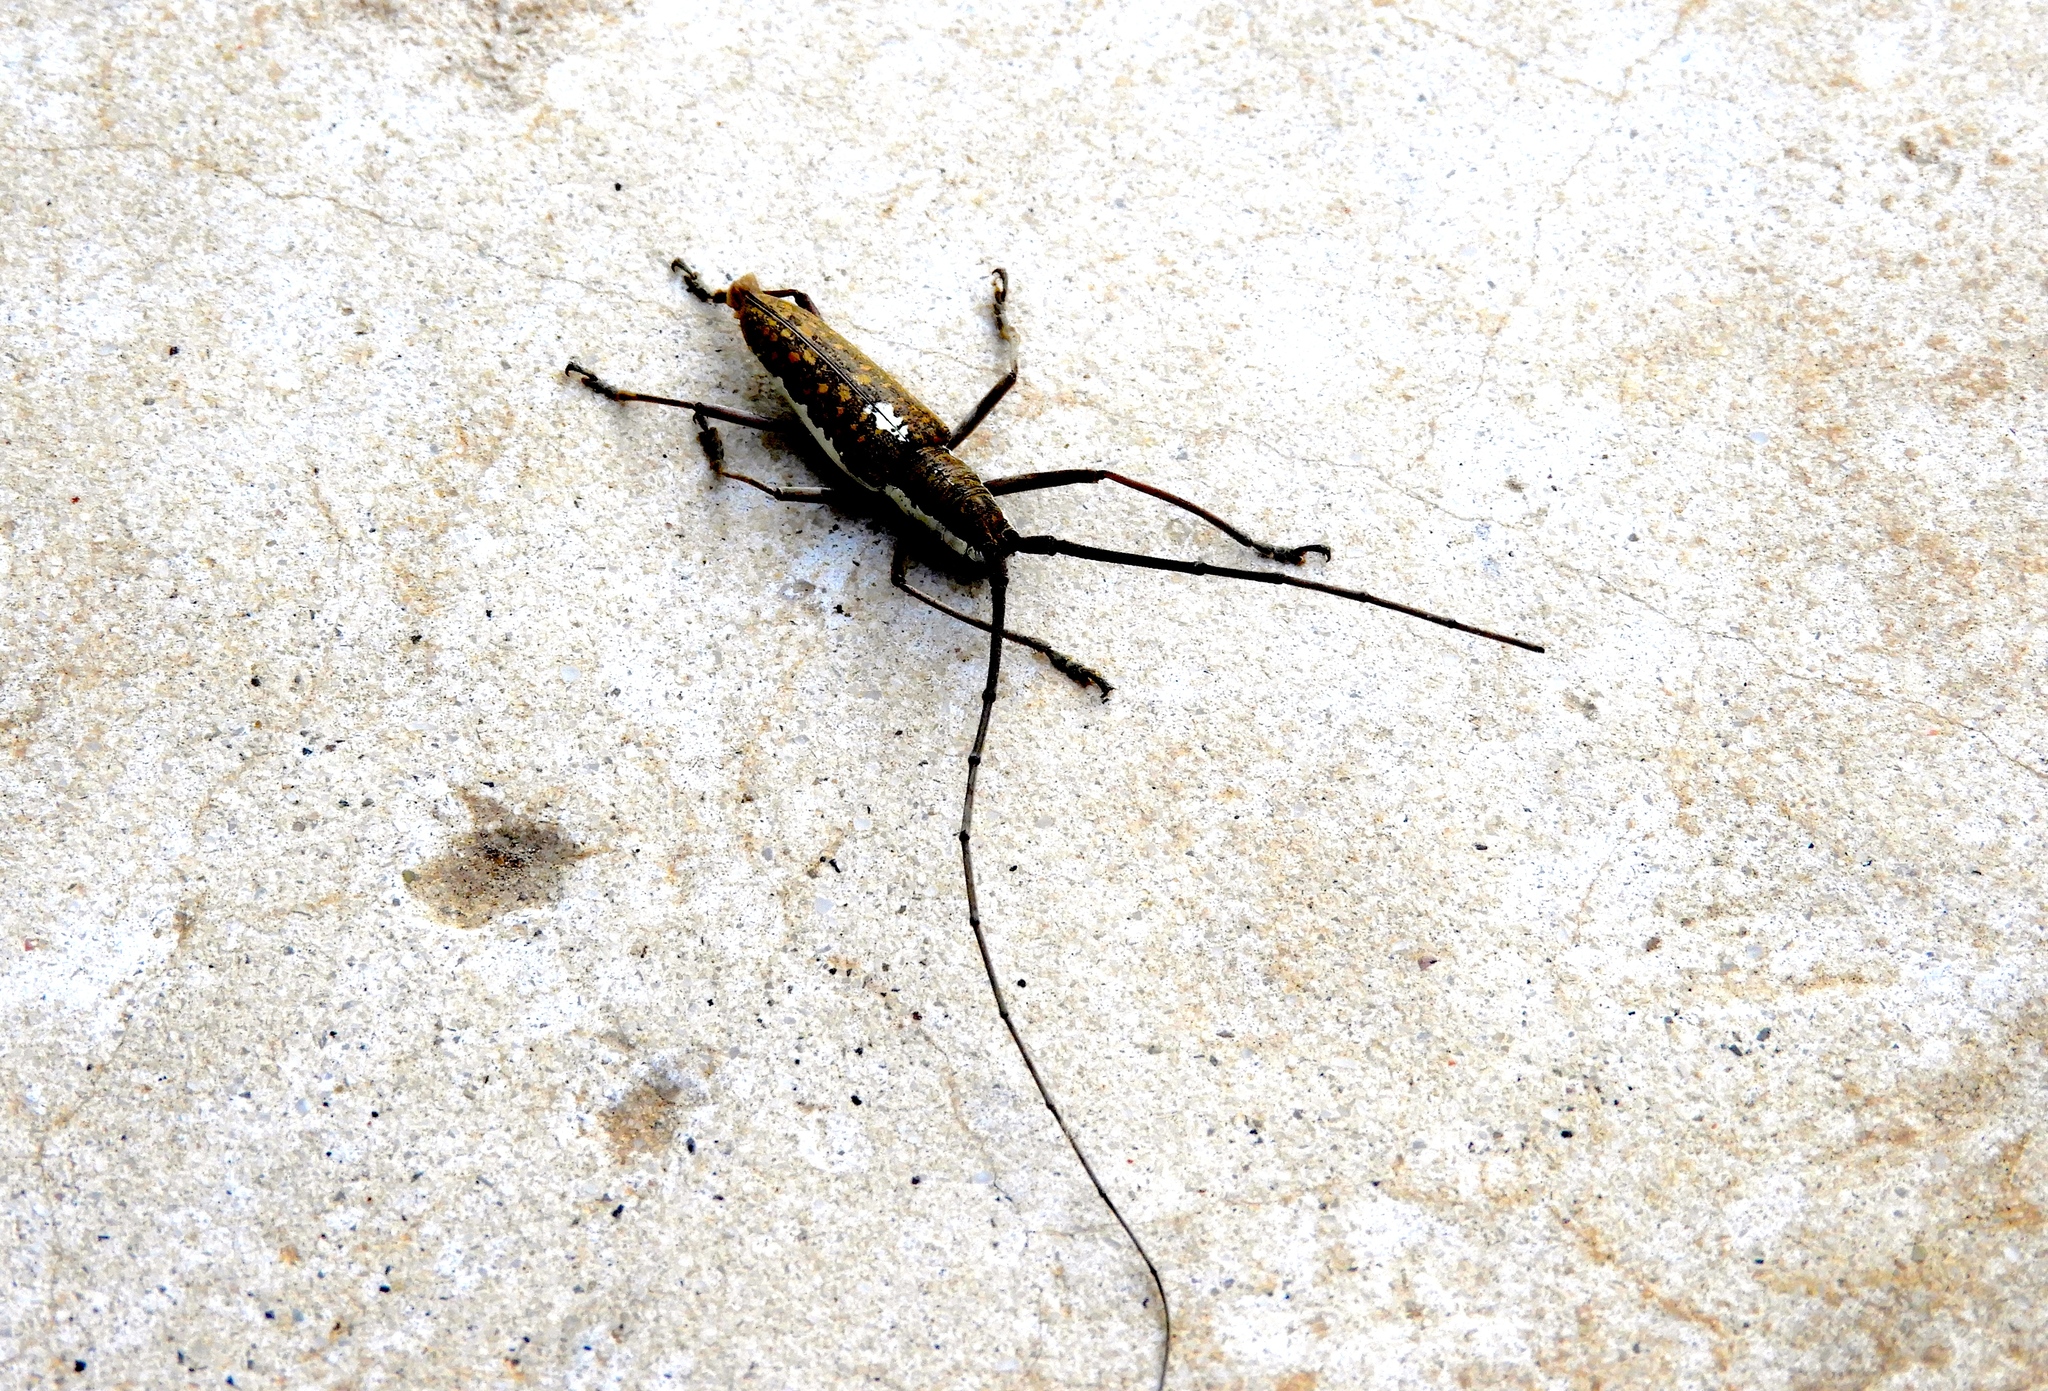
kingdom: Animalia
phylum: Arthropoda
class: Insecta
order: Coleoptera
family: Cerambycidae
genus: Neoptychodes
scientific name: Neoptychodes trilineatus
